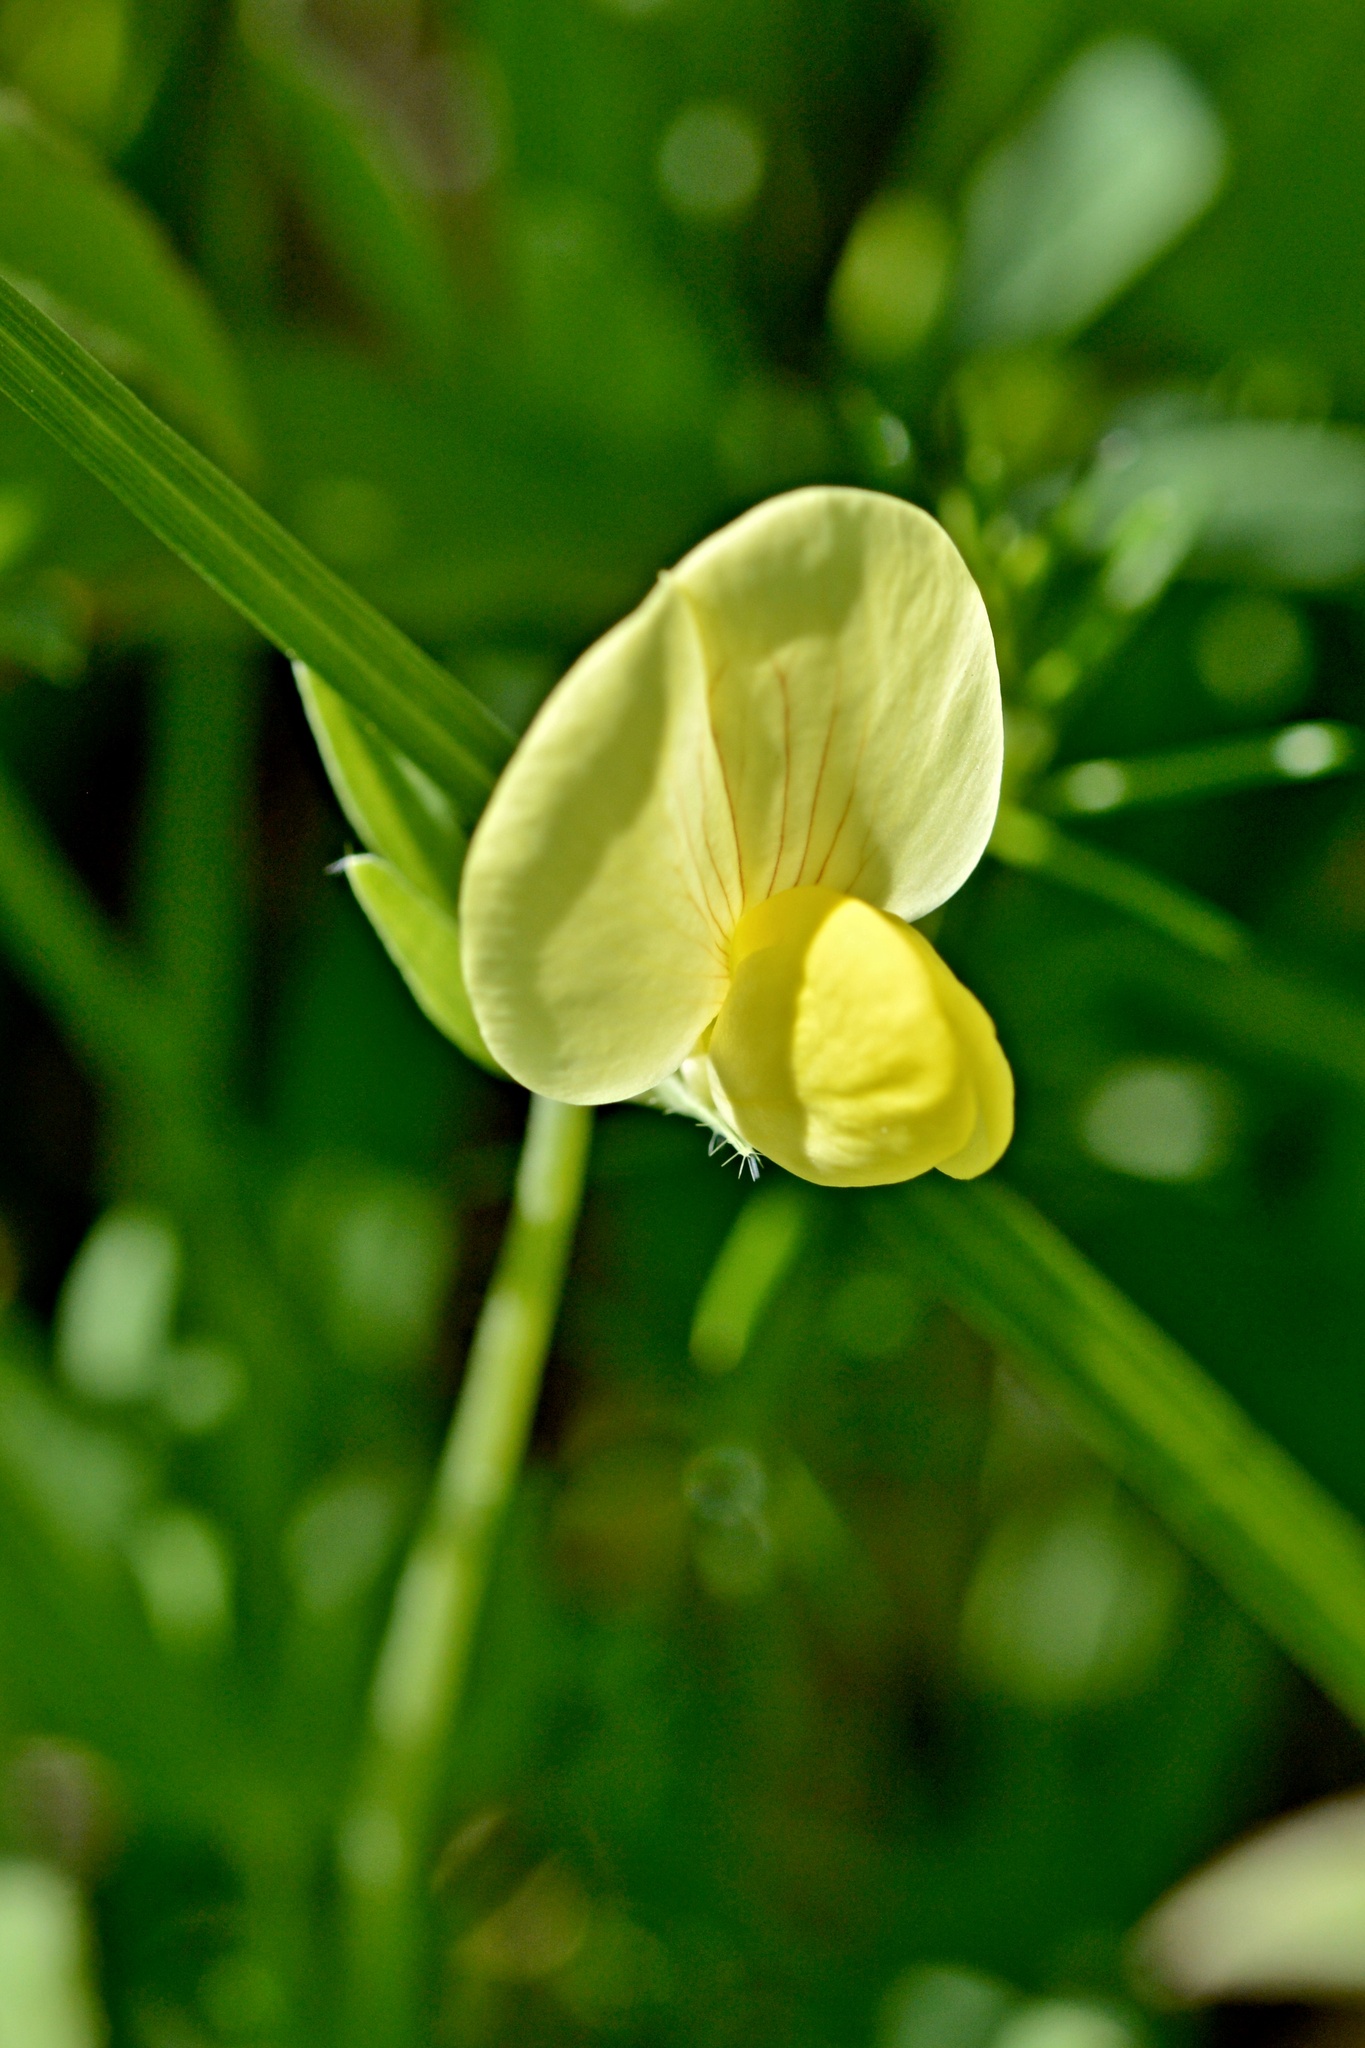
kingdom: Plantae
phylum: Tracheophyta
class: Magnoliopsida
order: Fabales
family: Fabaceae
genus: Lotus
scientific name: Lotus maritimus
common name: Dragon's-teeth
